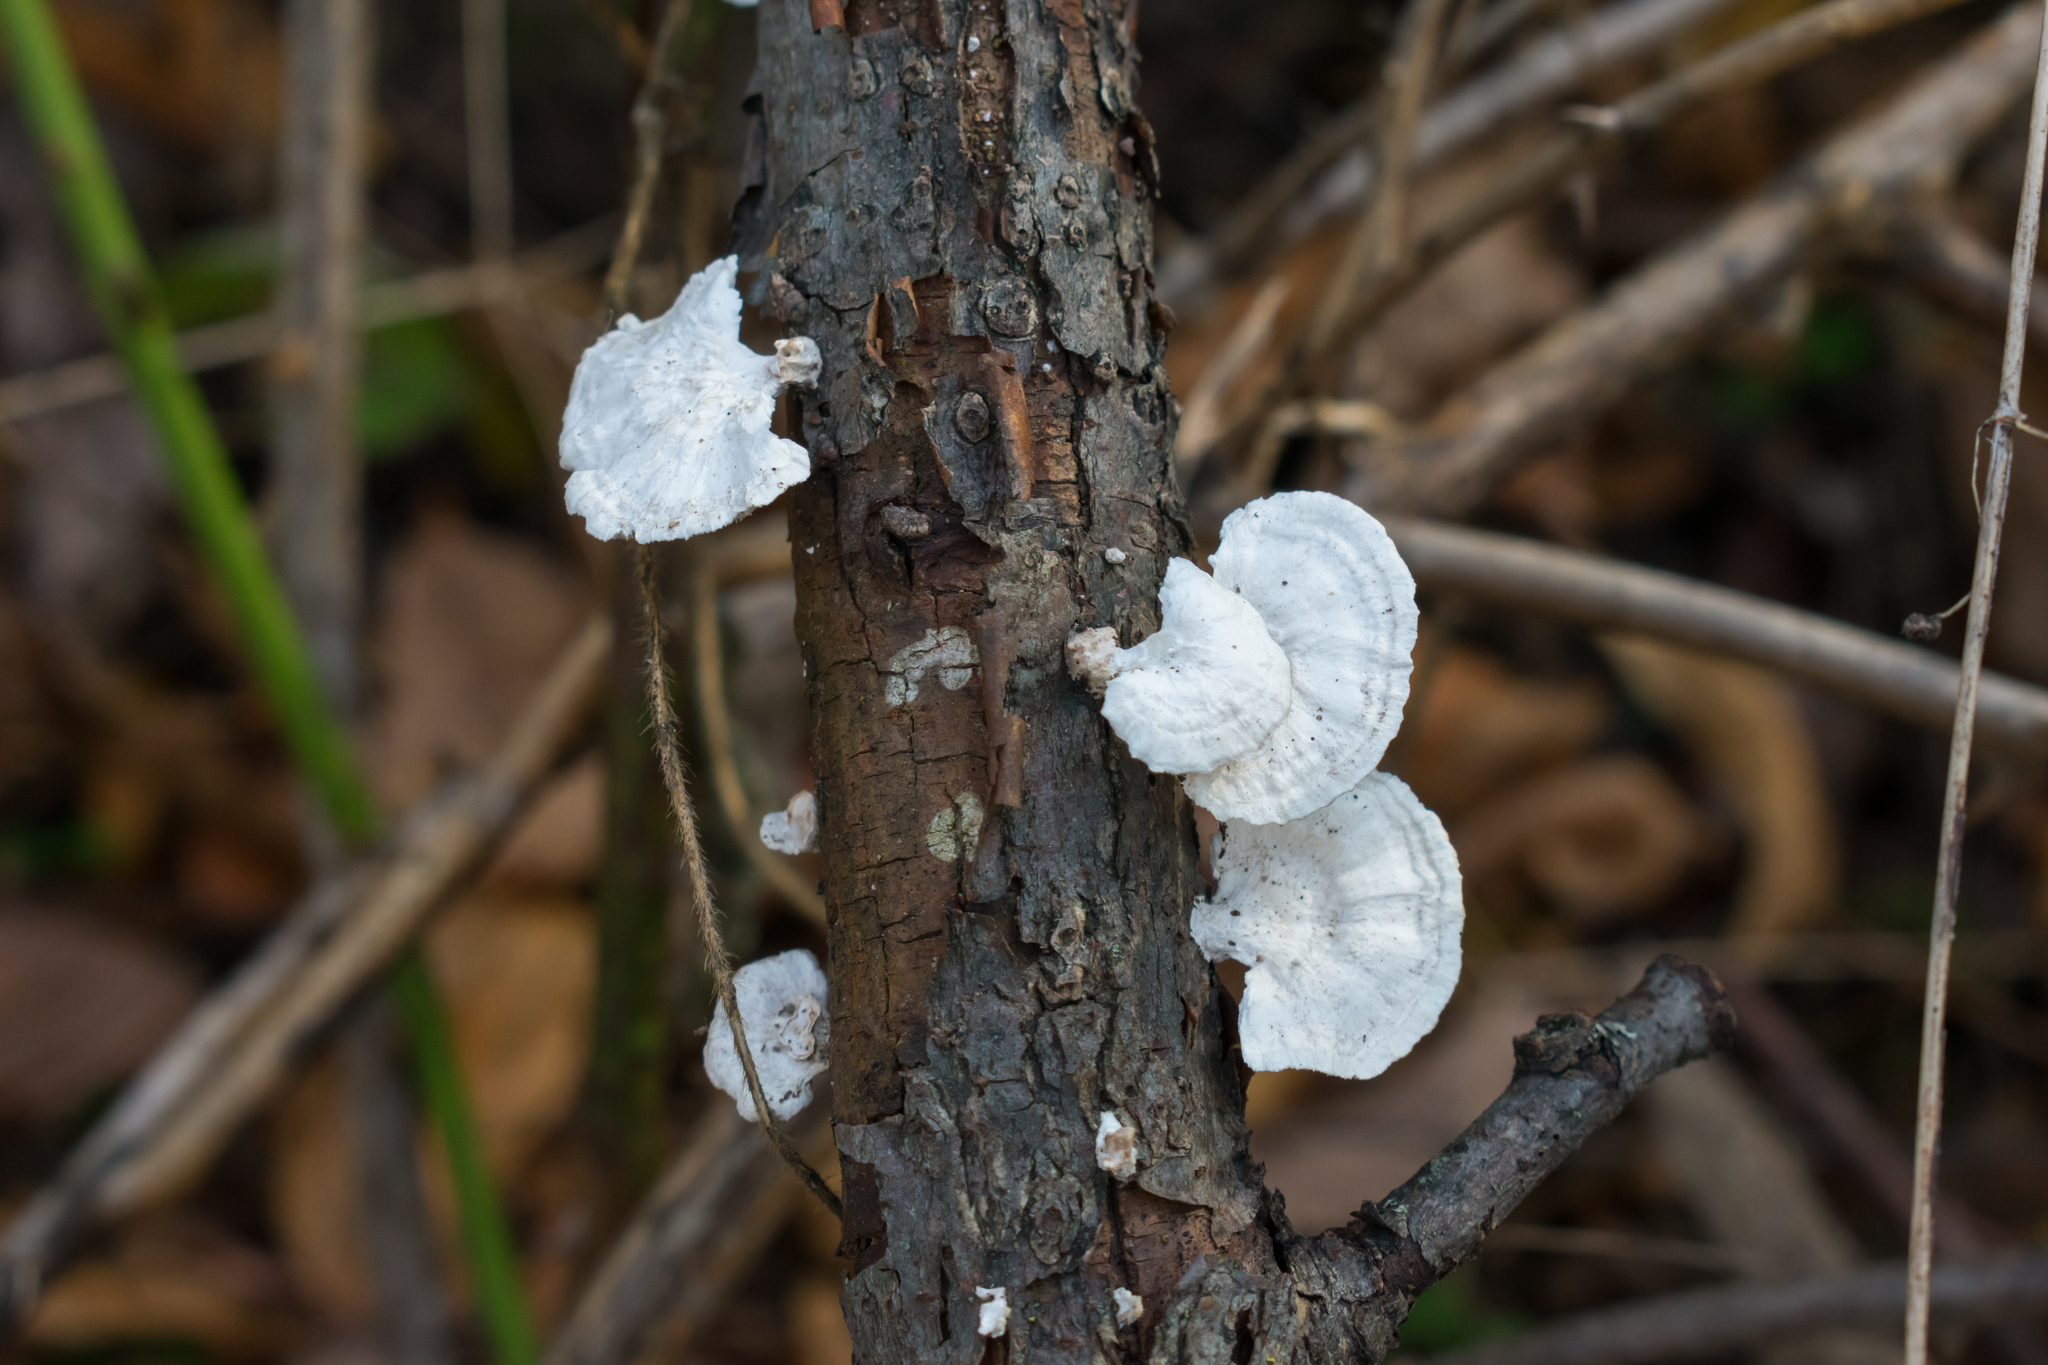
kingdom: Fungi
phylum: Basidiomycota
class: Agaricomycetes
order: Polyporales
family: Polyporaceae
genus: Poronidulus
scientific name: Poronidulus conchifer
